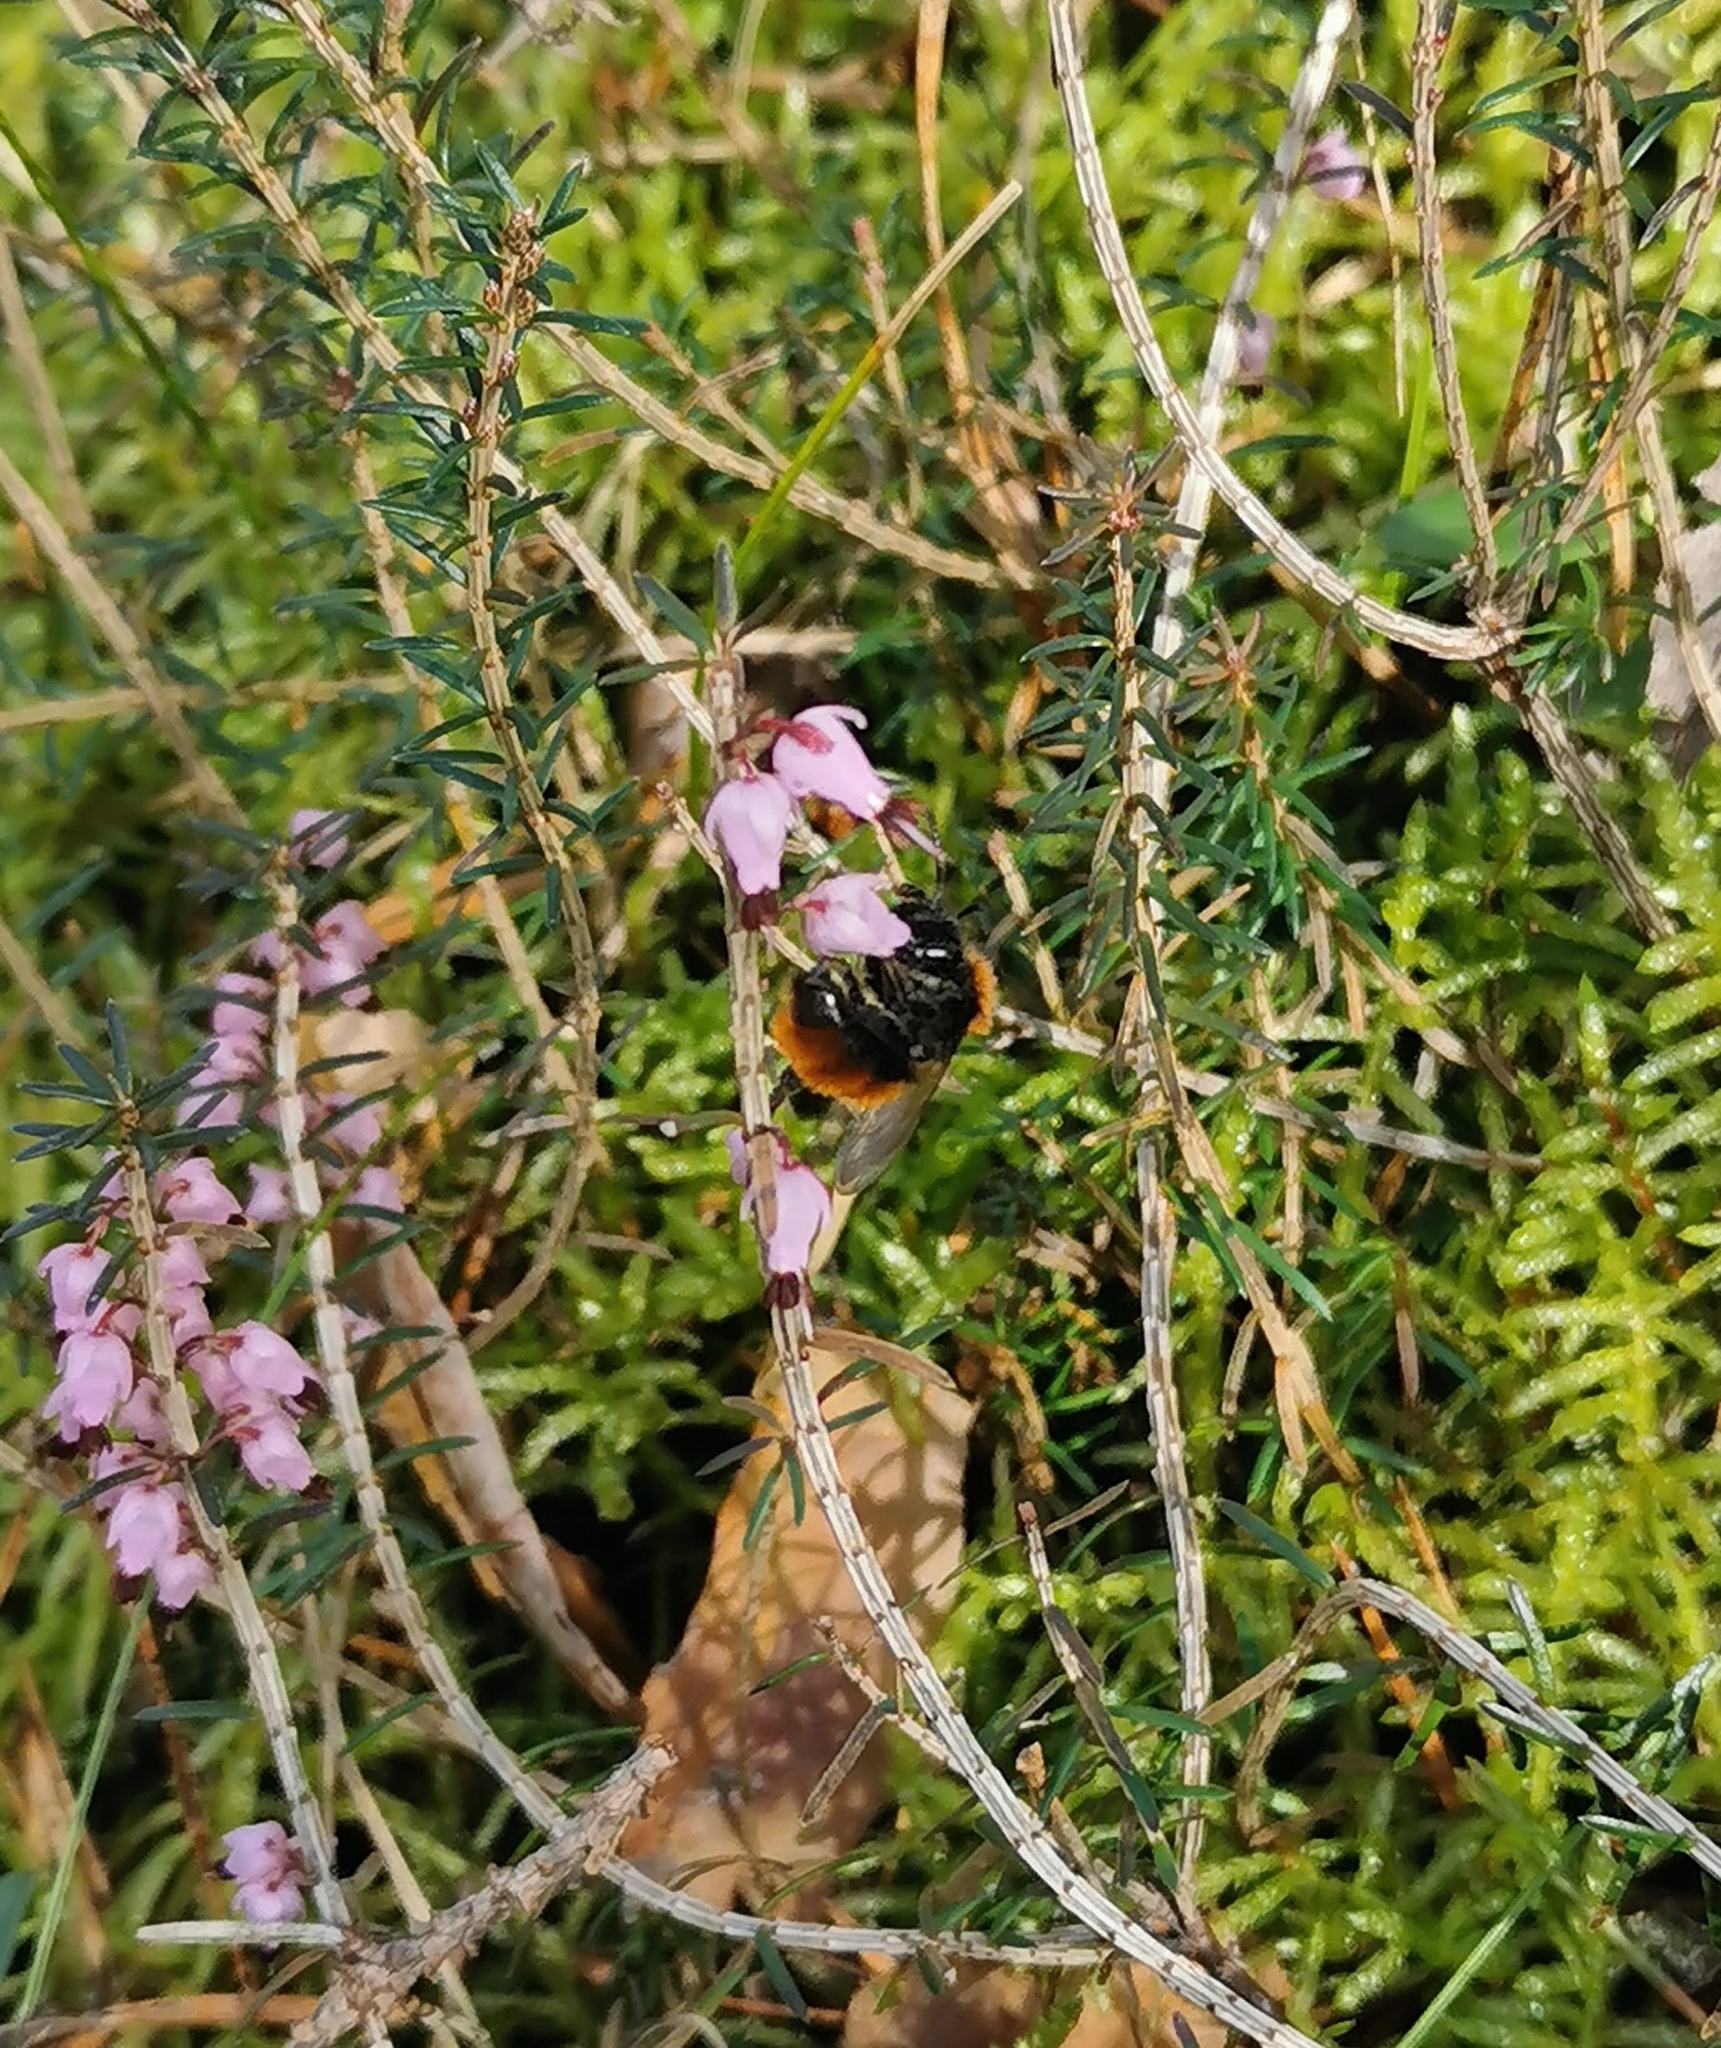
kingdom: Animalia
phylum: Arthropoda
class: Insecta
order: Hymenoptera
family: Andrenidae
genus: Andrena
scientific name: Andrena fulva
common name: Tawny mining bee
